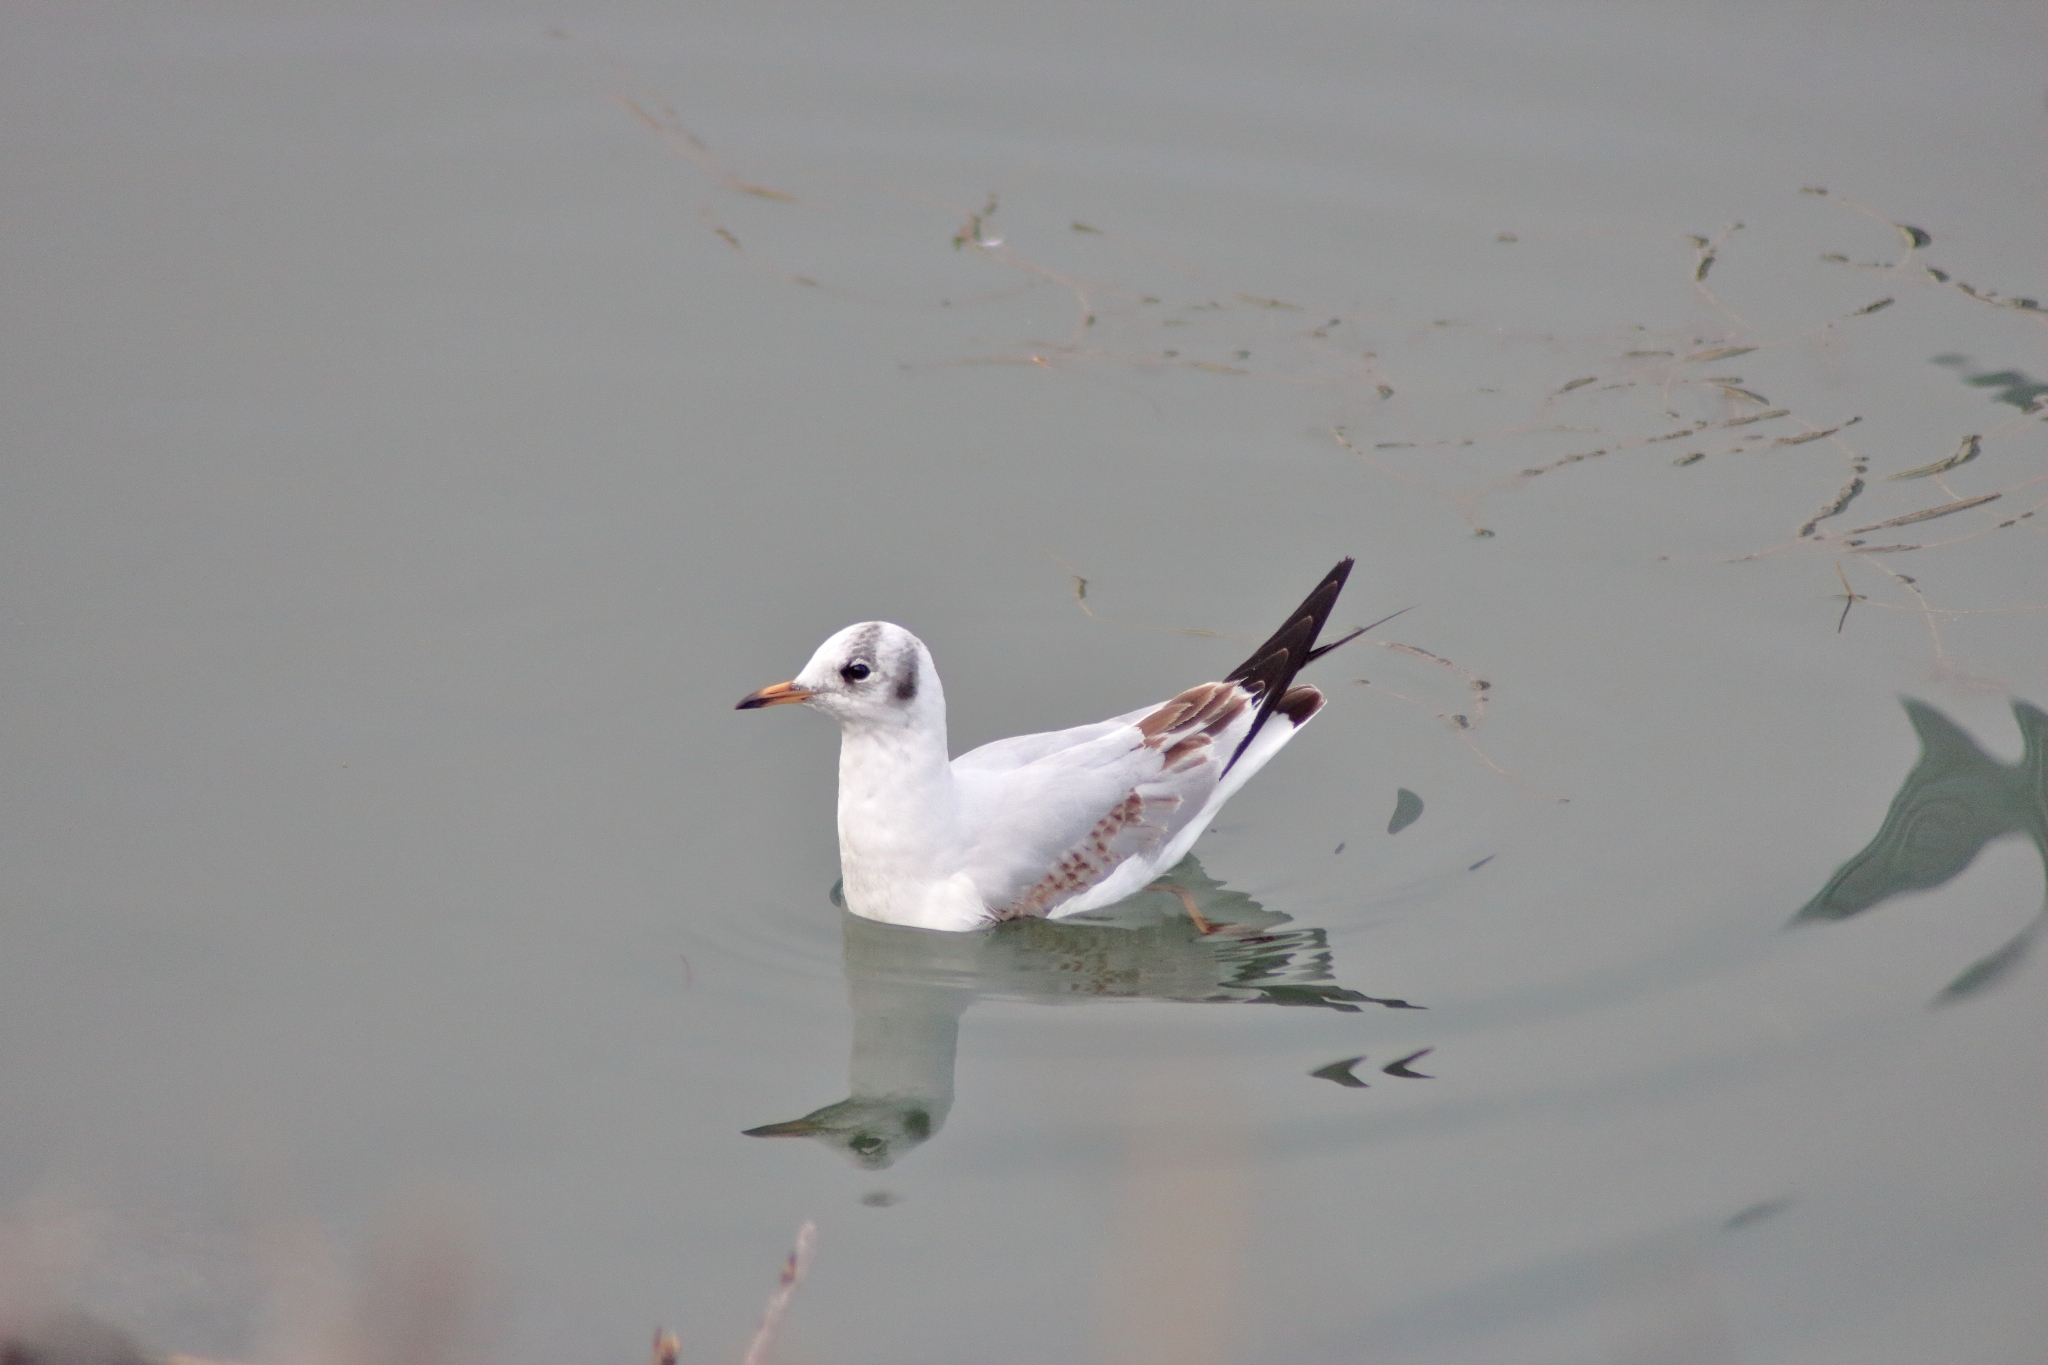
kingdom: Animalia
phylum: Chordata
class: Aves
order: Charadriiformes
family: Laridae
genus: Chroicocephalus
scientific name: Chroicocephalus ridibundus
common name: Black-headed gull
